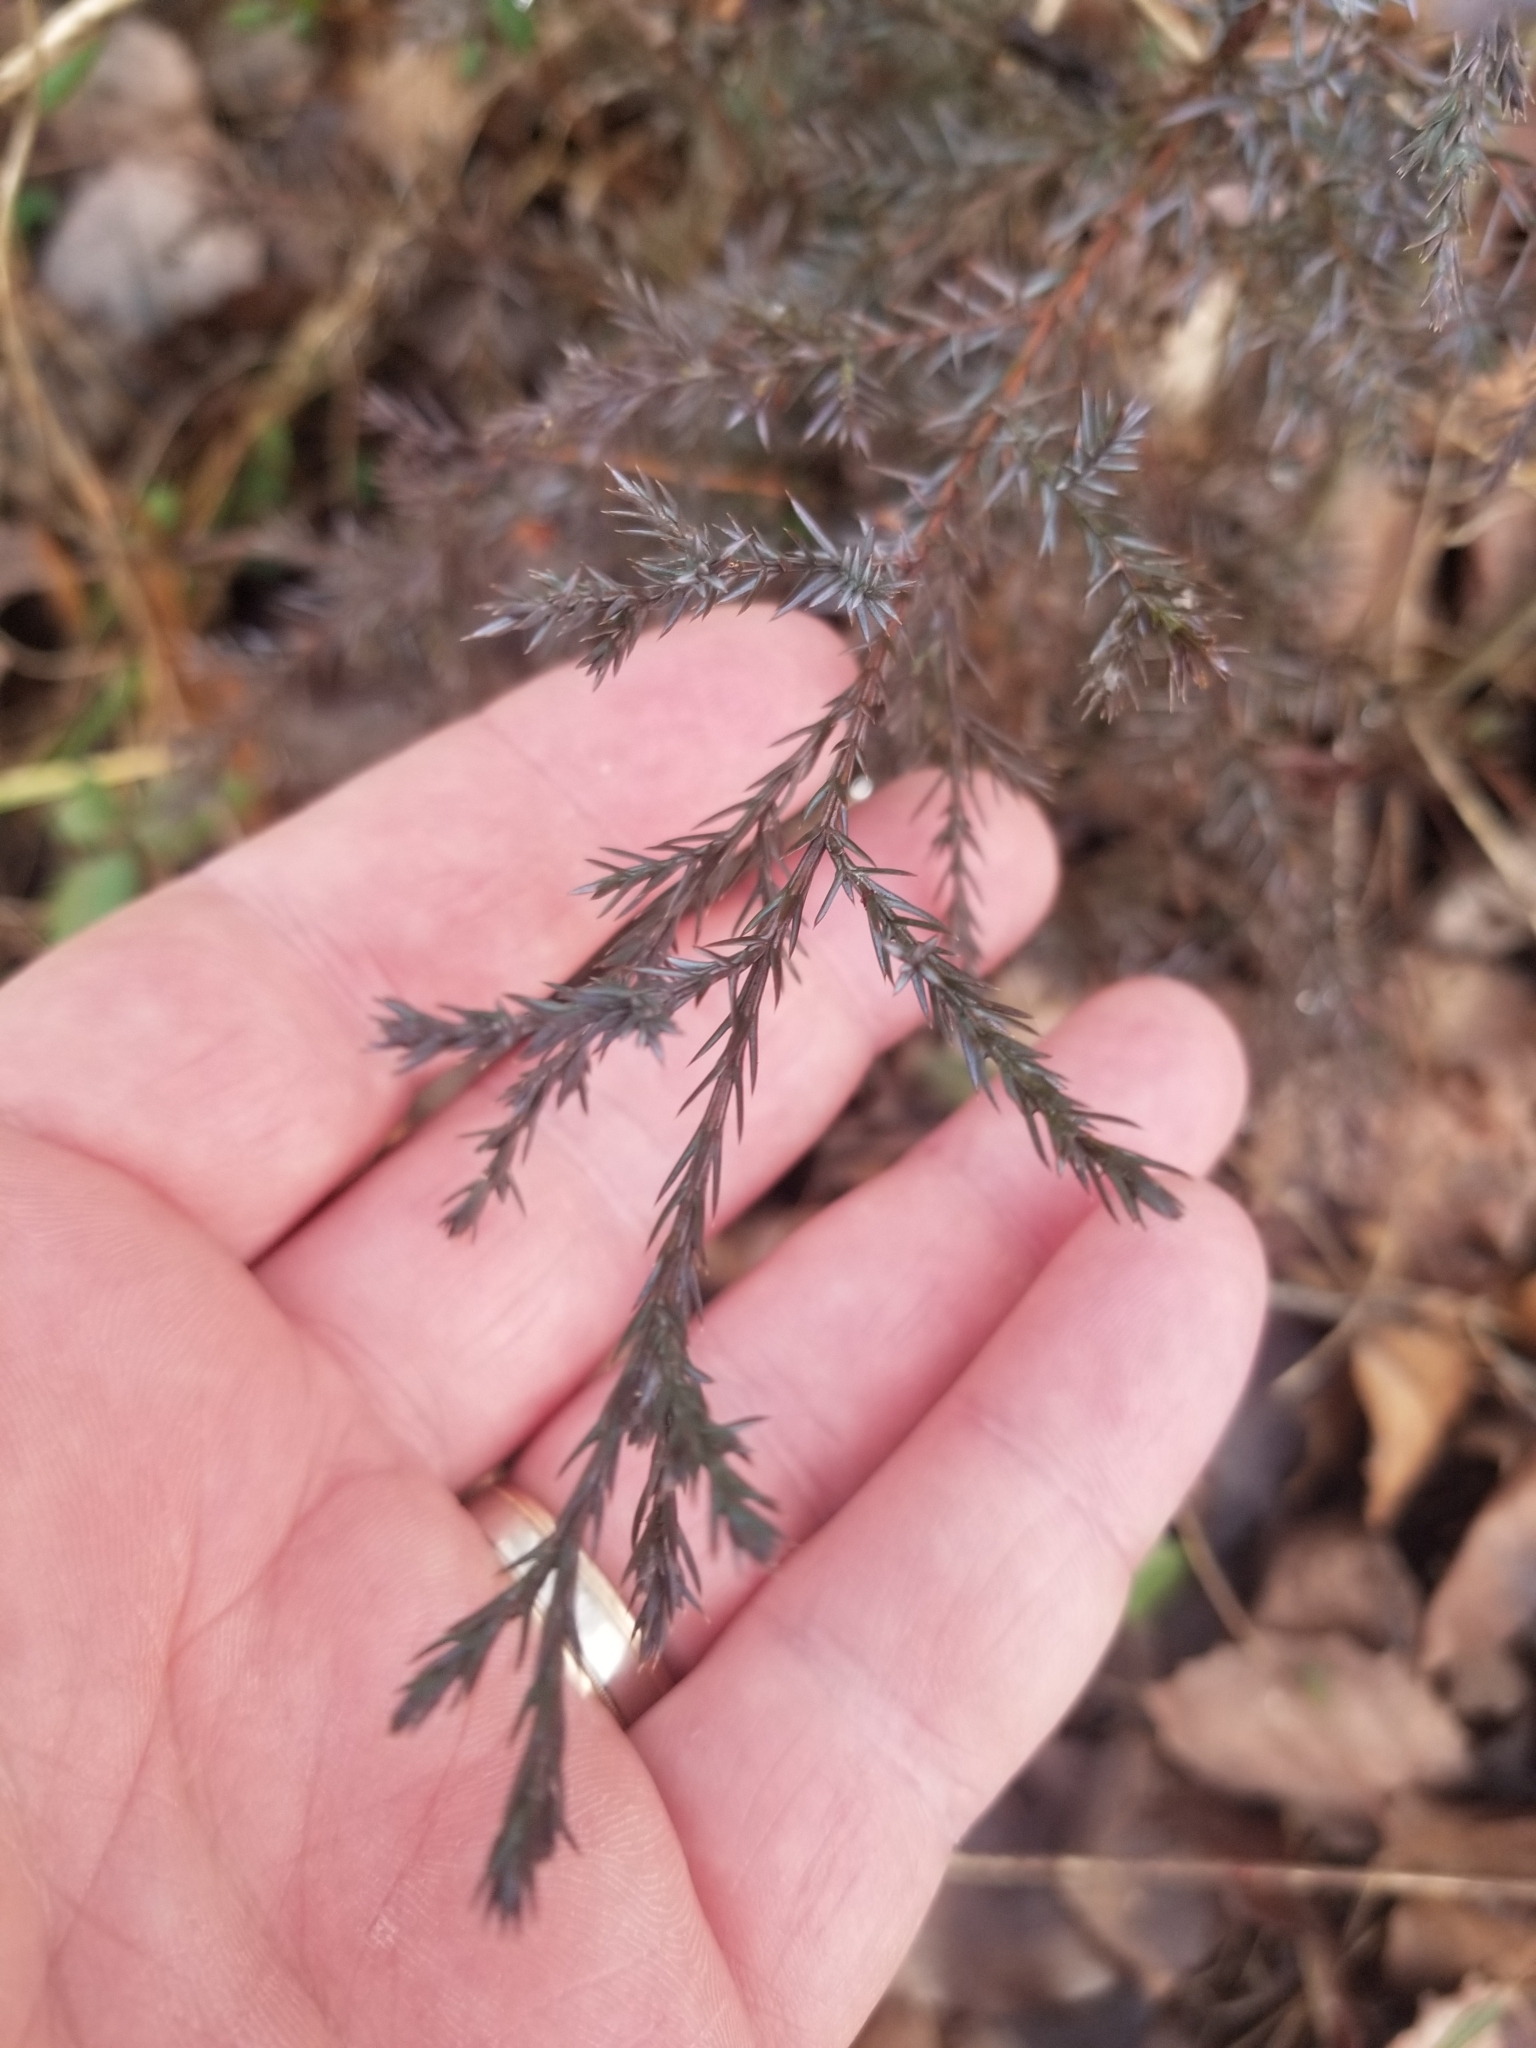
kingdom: Plantae
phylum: Tracheophyta
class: Pinopsida
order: Pinales
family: Cupressaceae
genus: Juniperus
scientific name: Juniperus virginiana
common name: Red juniper
